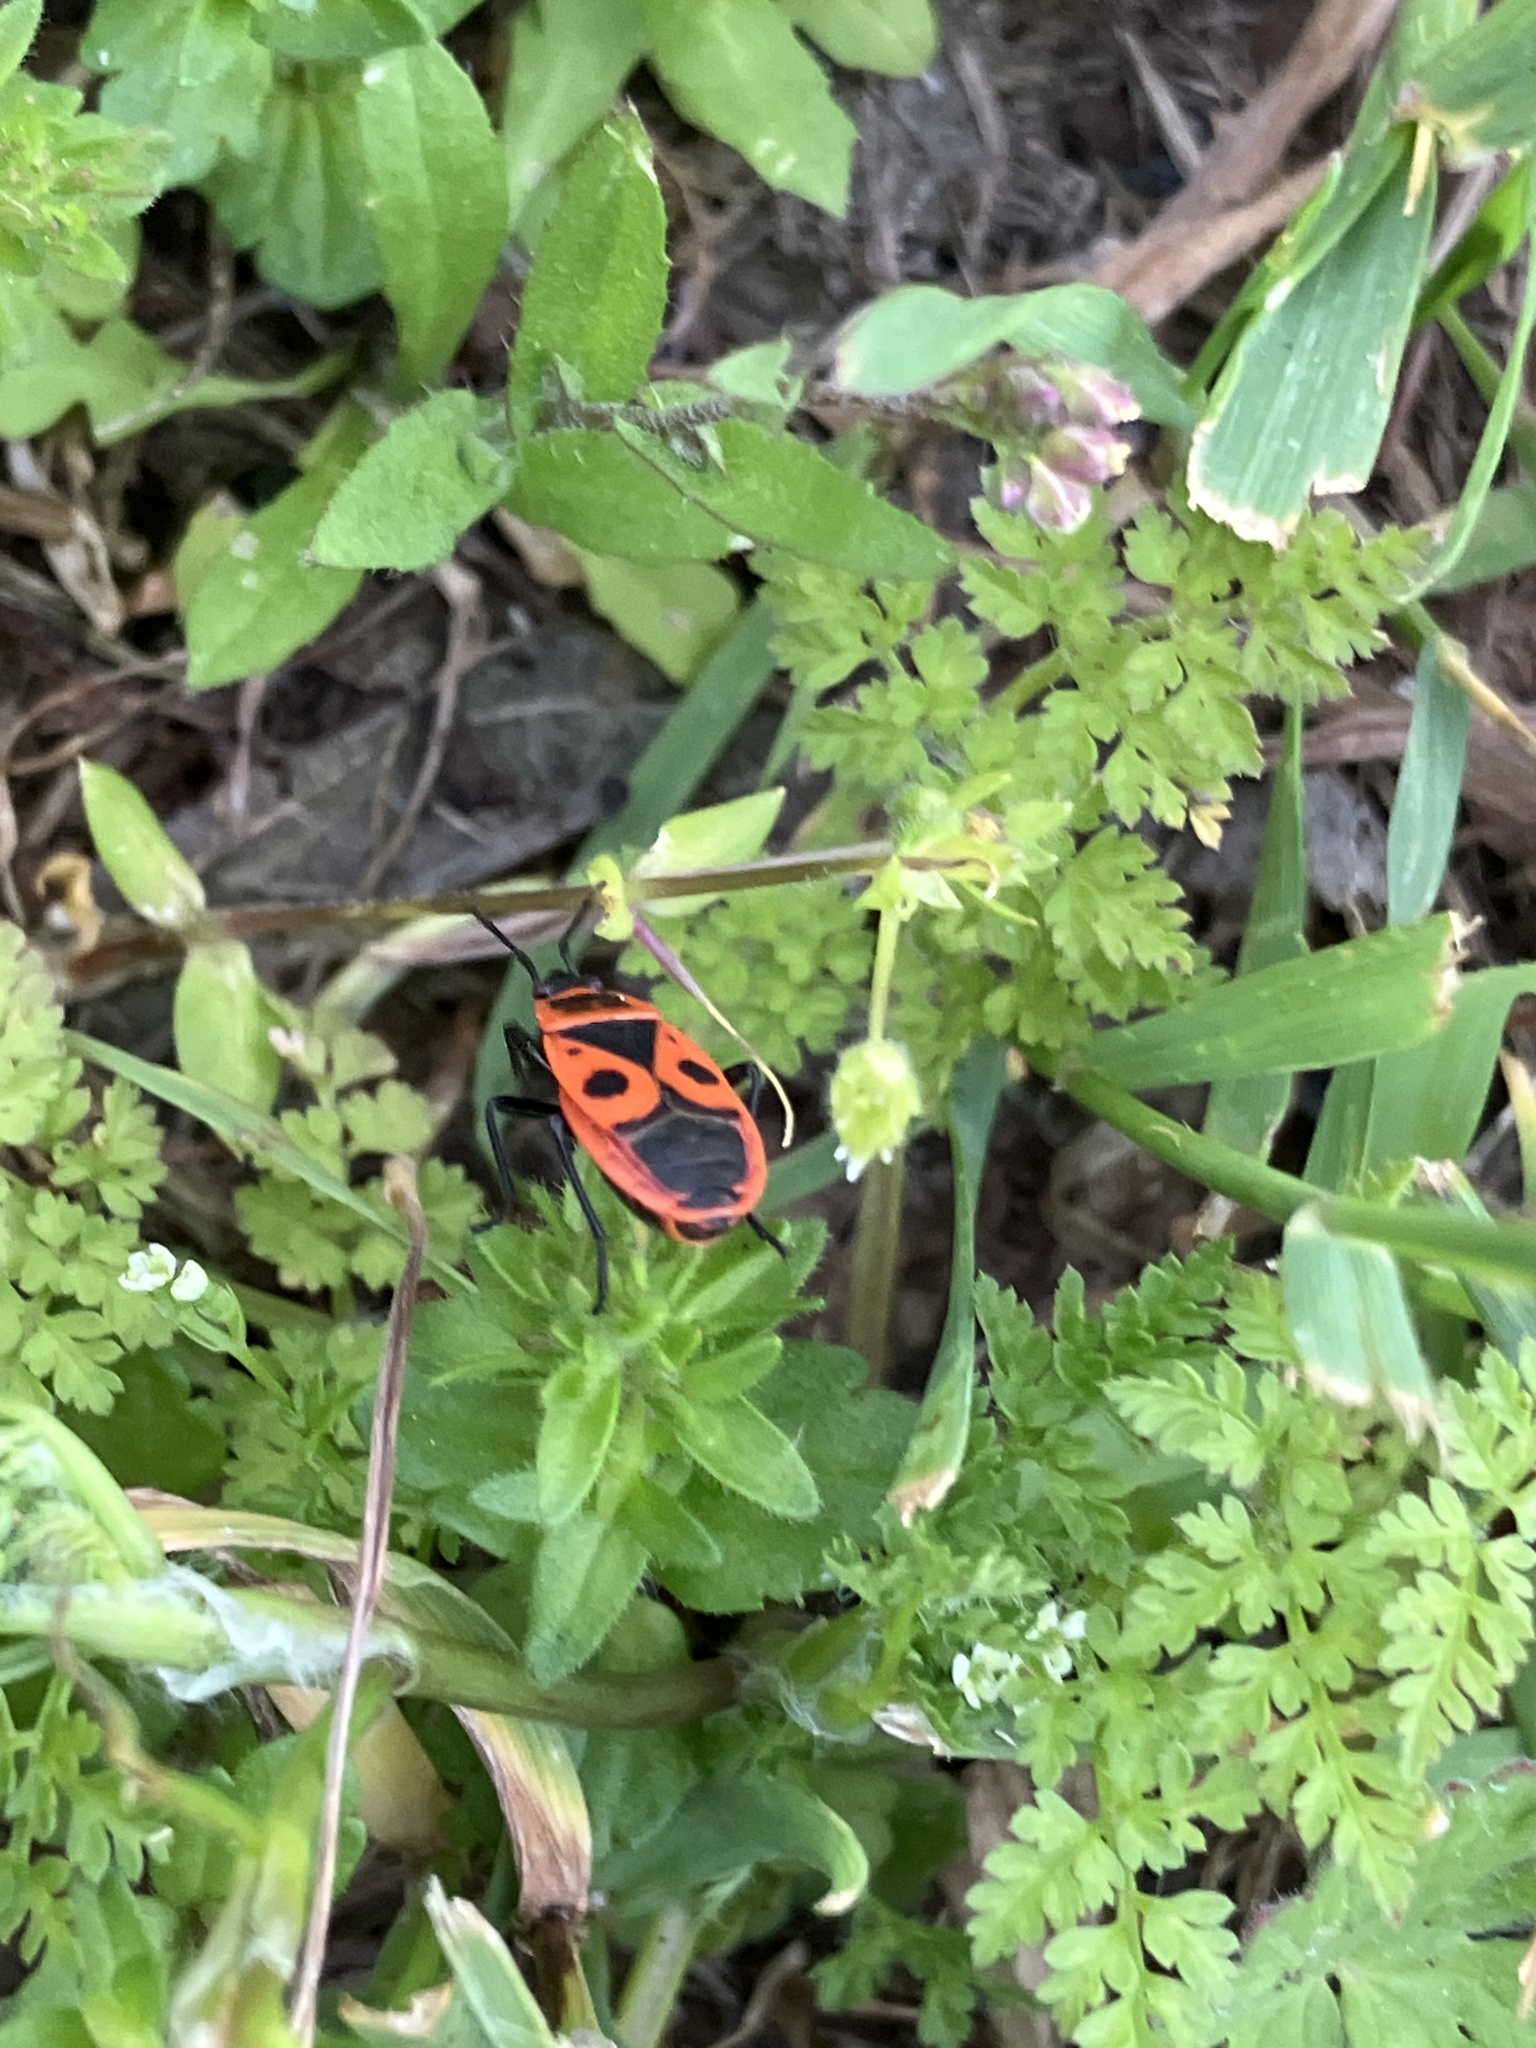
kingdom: Animalia
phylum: Arthropoda
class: Insecta
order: Hemiptera
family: Pyrrhocoridae
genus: Pyrrhocoris
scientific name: Pyrrhocoris apterus
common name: Firebug
